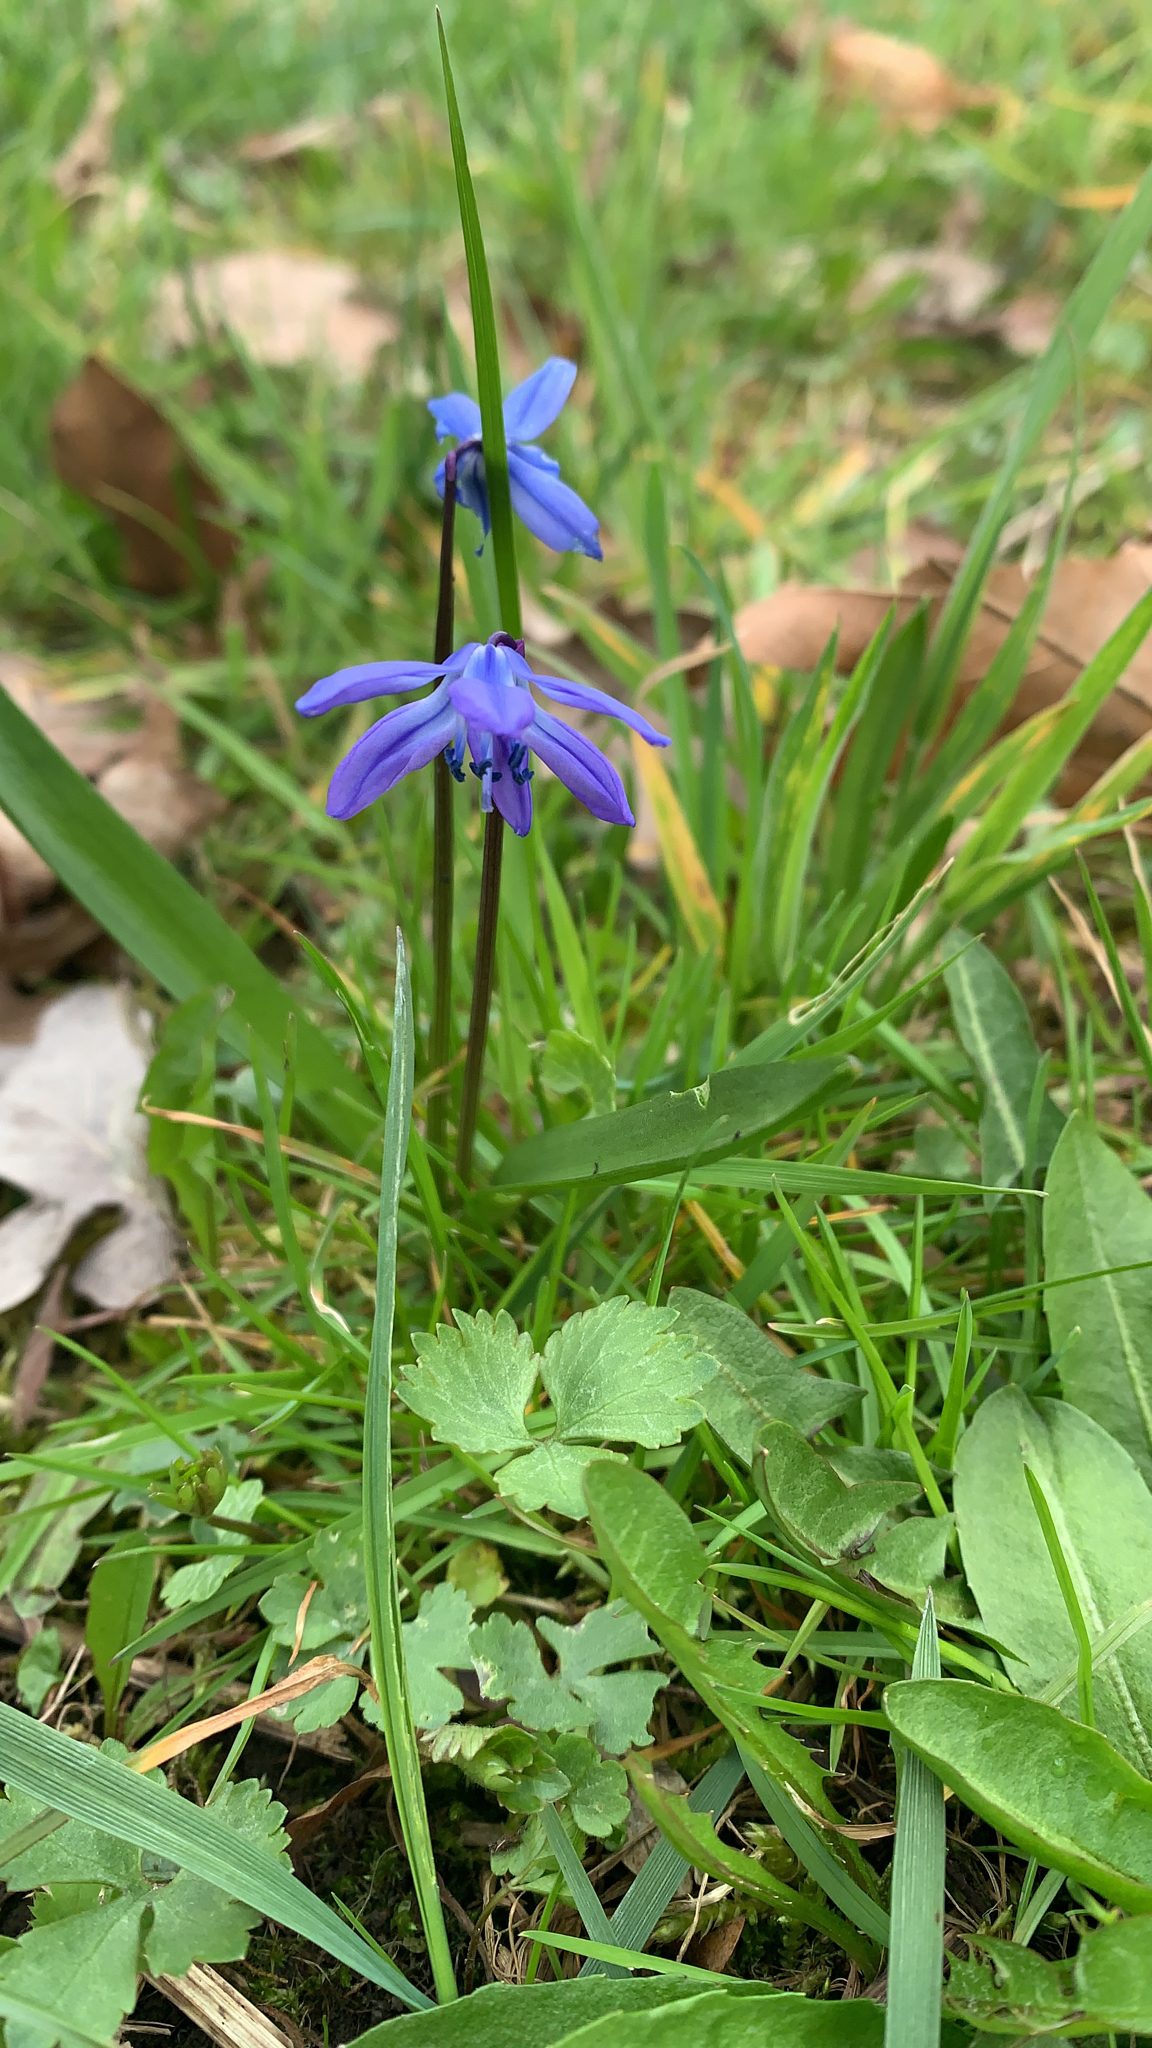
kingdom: Plantae
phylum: Tracheophyta
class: Liliopsida
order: Asparagales
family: Asparagaceae
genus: Scilla
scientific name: Scilla siberica
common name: Siberian squill
